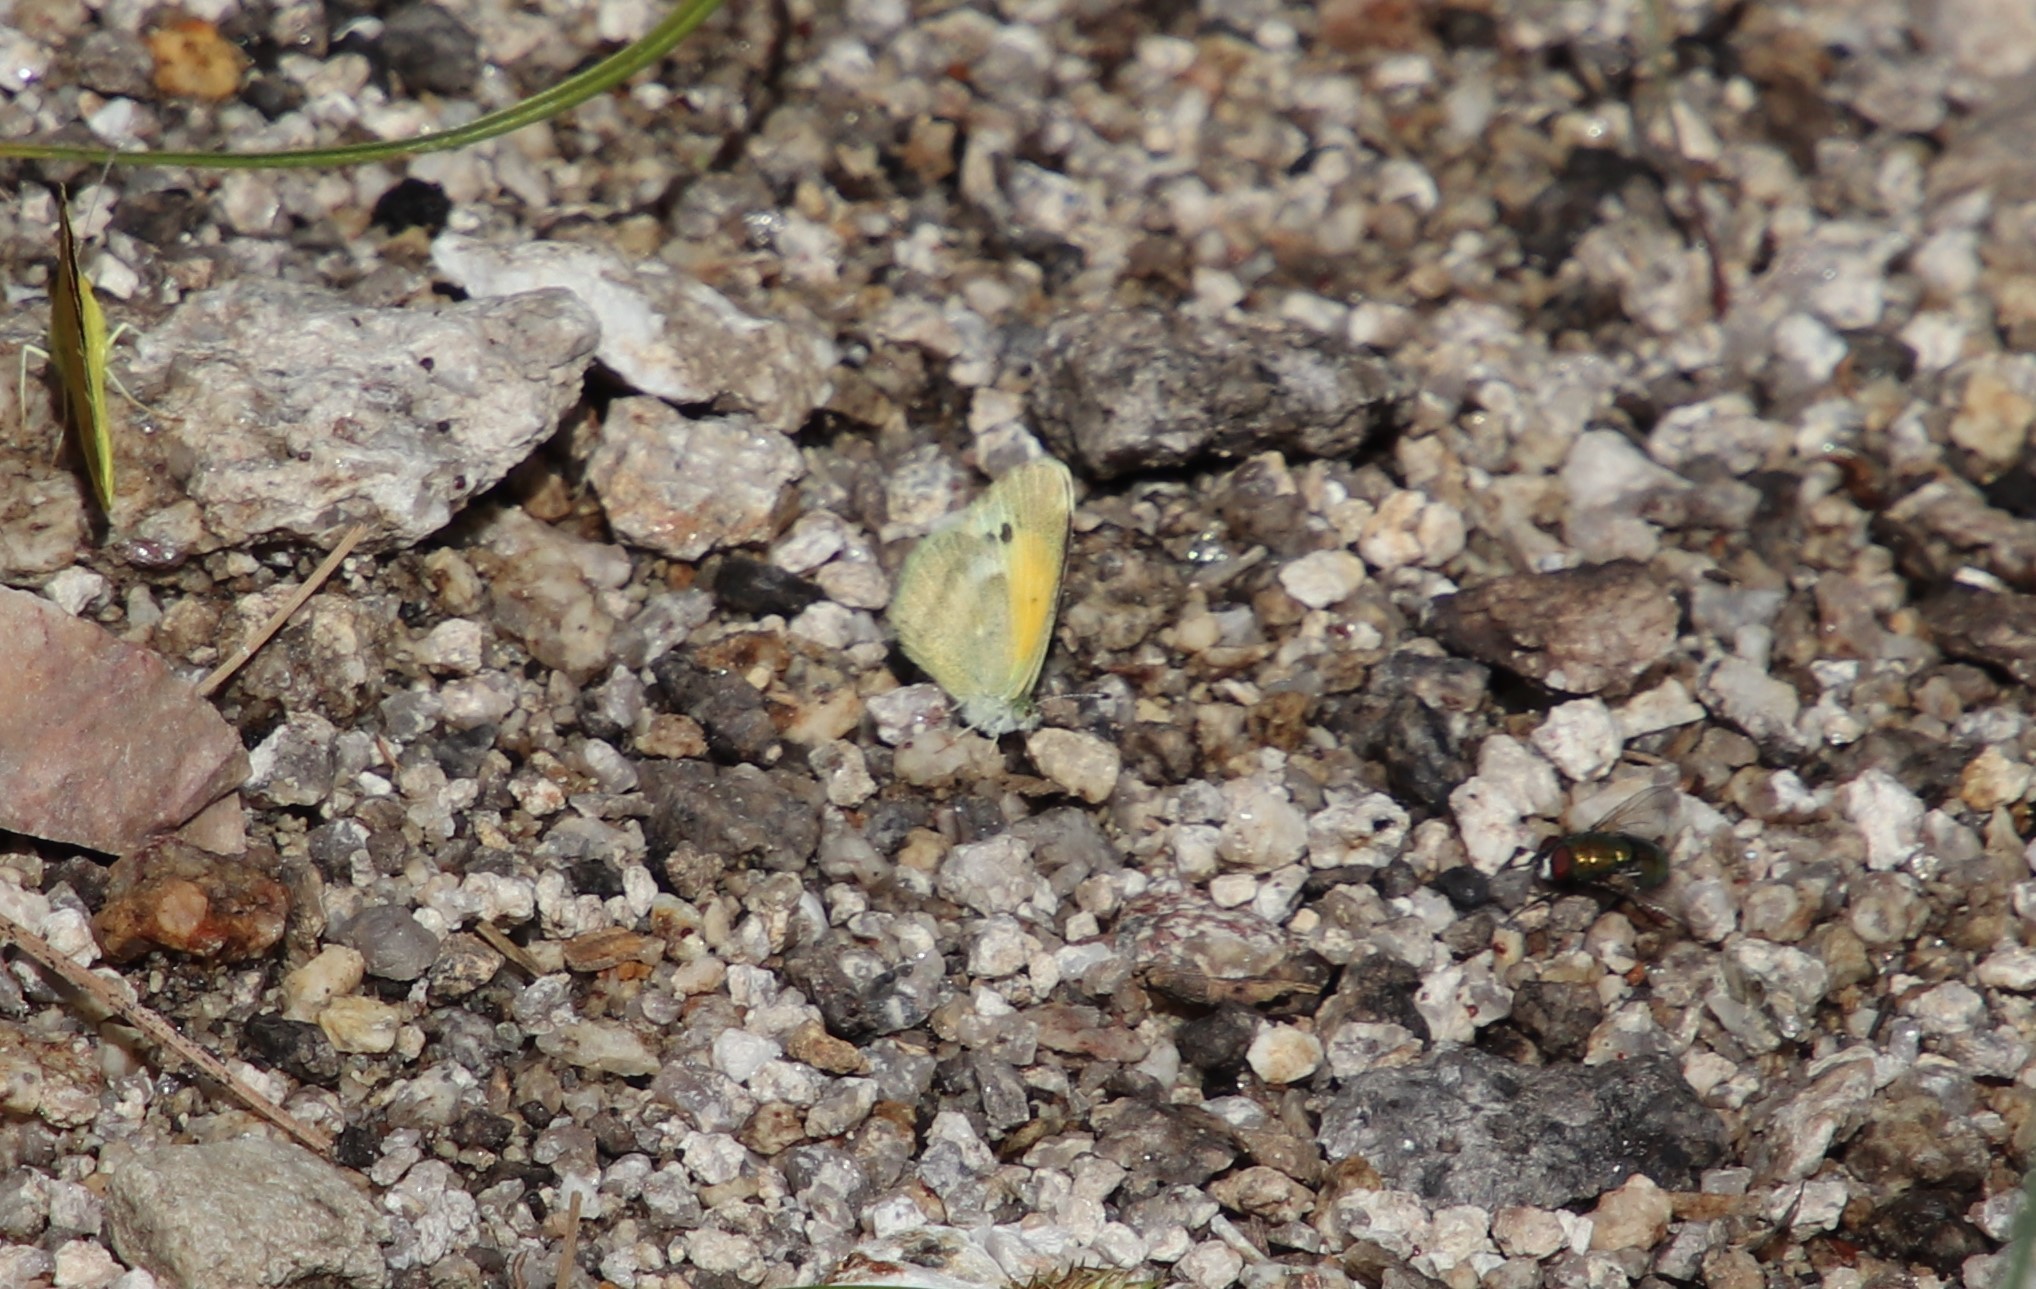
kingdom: Animalia
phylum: Arthropoda
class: Insecta
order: Lepidoptera
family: Pieridae
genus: Nathalis
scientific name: Nathalis iole
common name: Dainty sulphur
